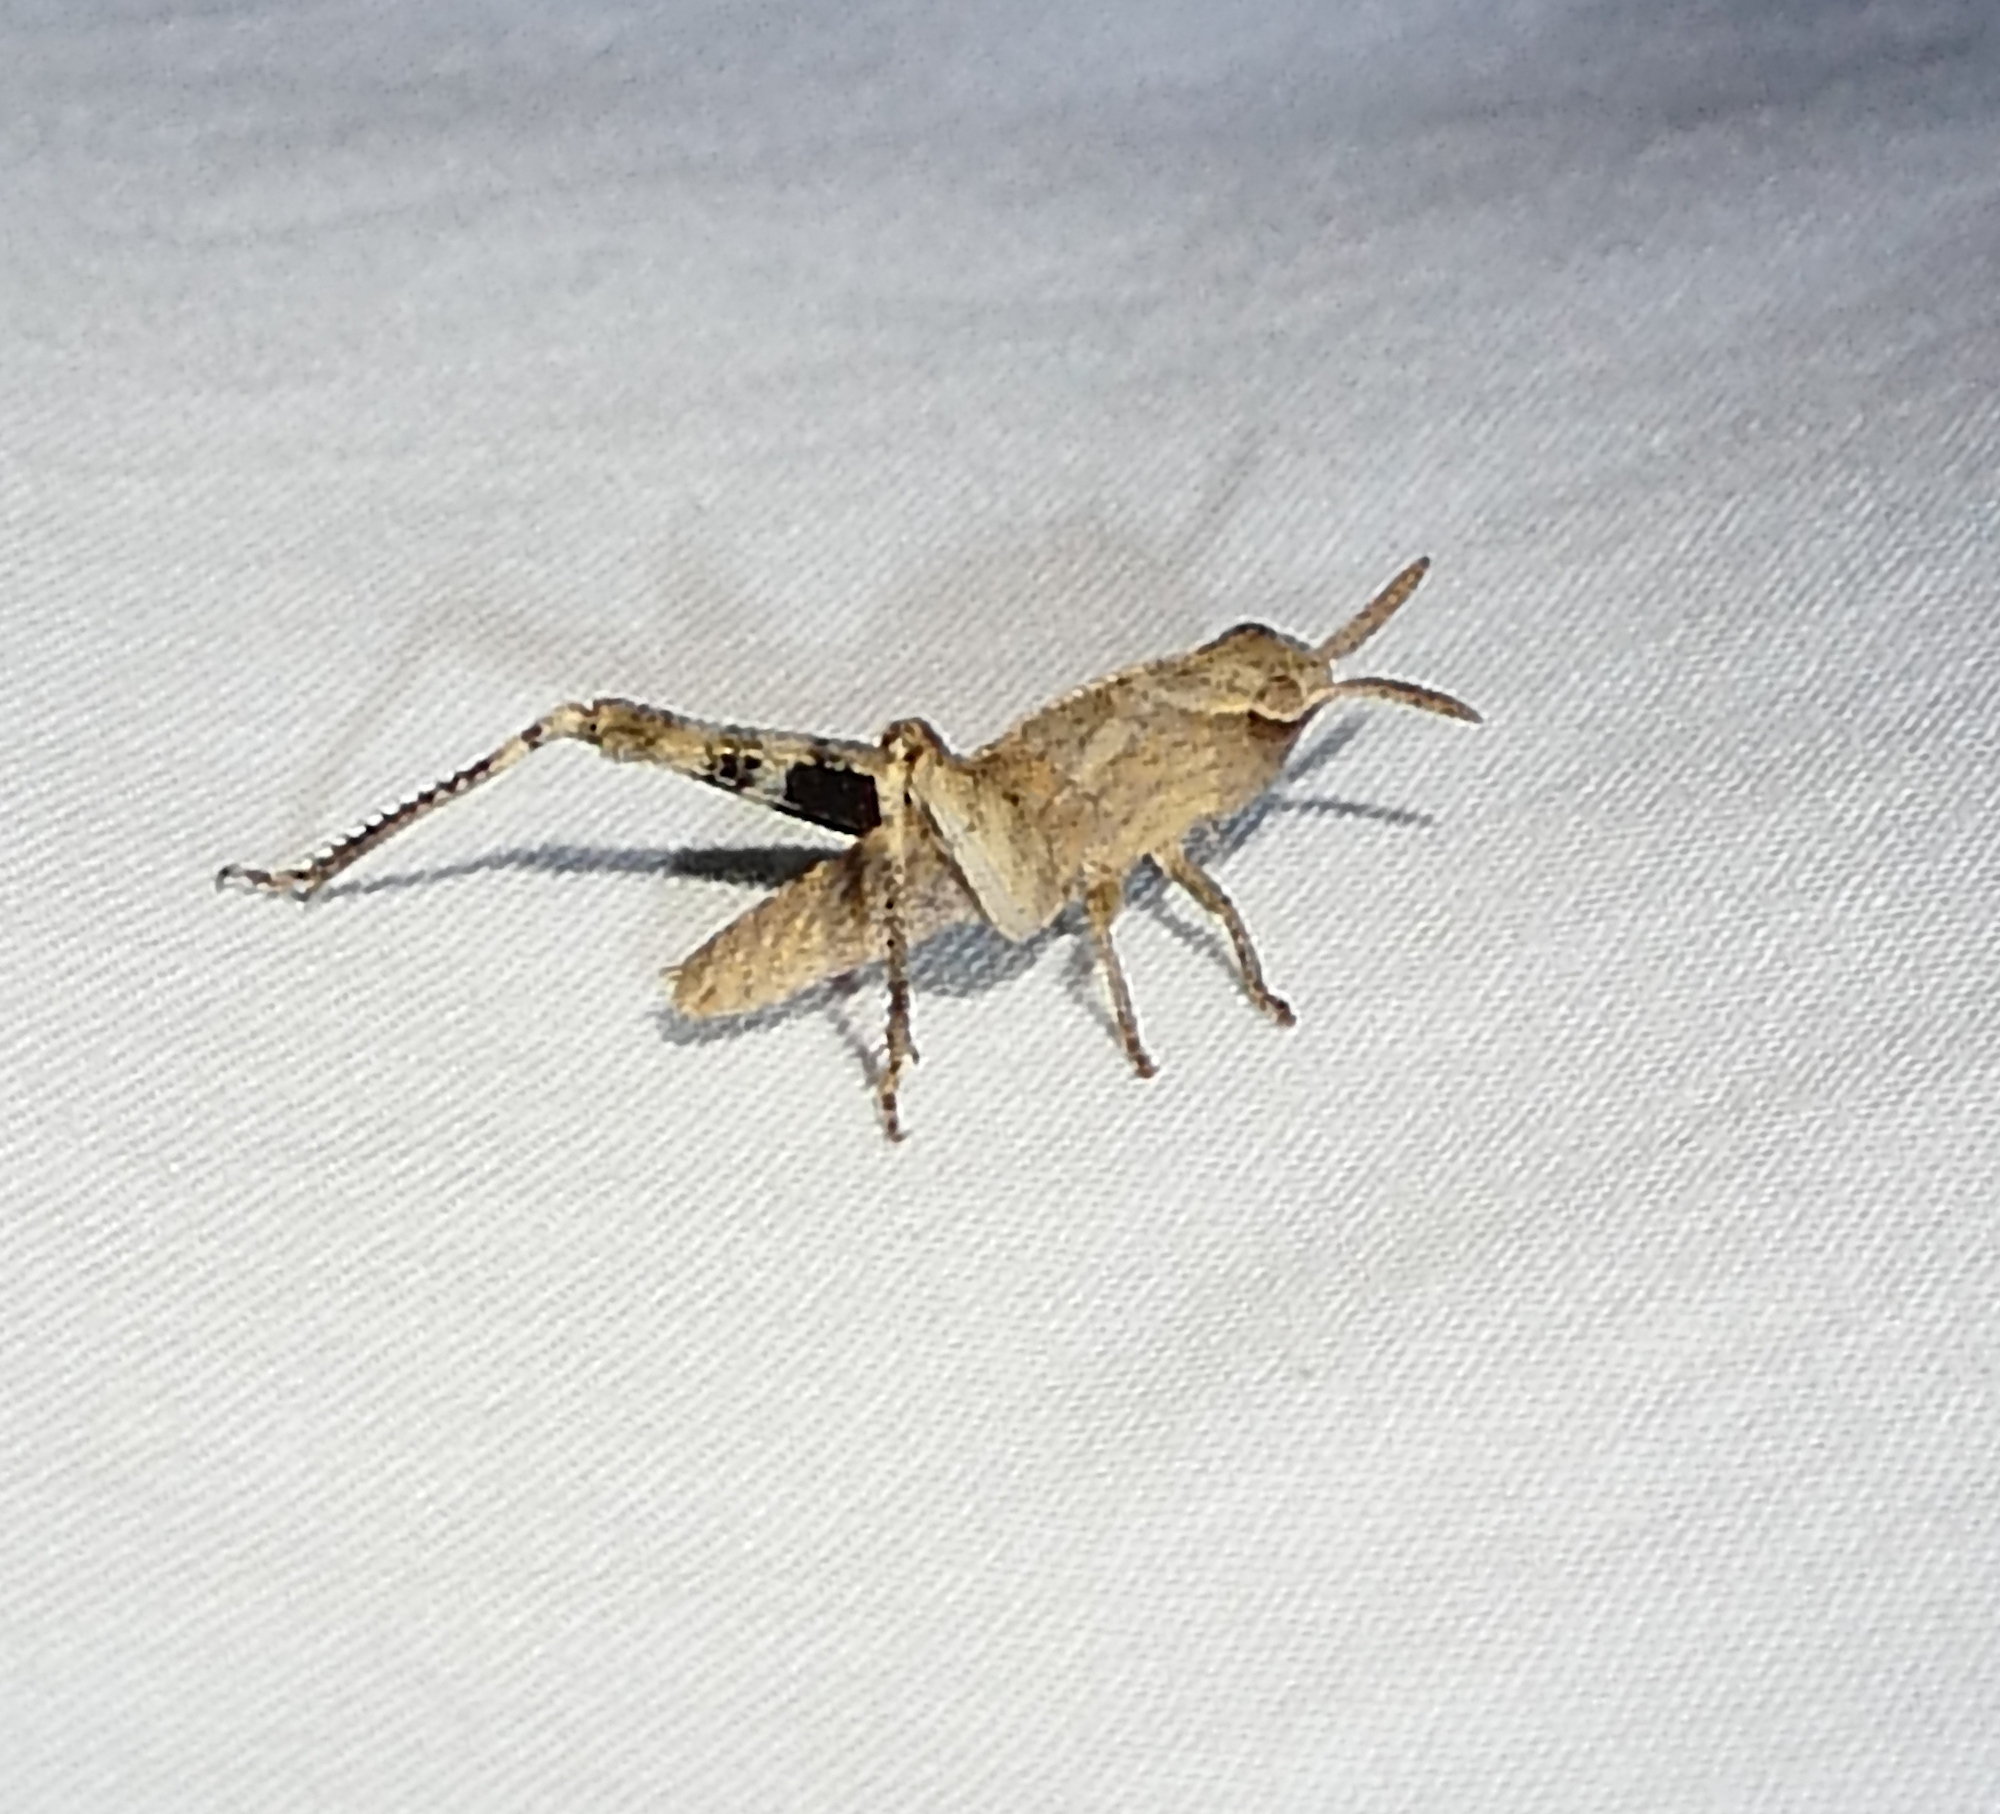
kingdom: Animalia
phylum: Arthropoda
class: Insecta
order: Orthoptera
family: Acrididae
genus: Chortophaga
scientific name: Chortophaga viridifasciata
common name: Green-striped grasshopper
